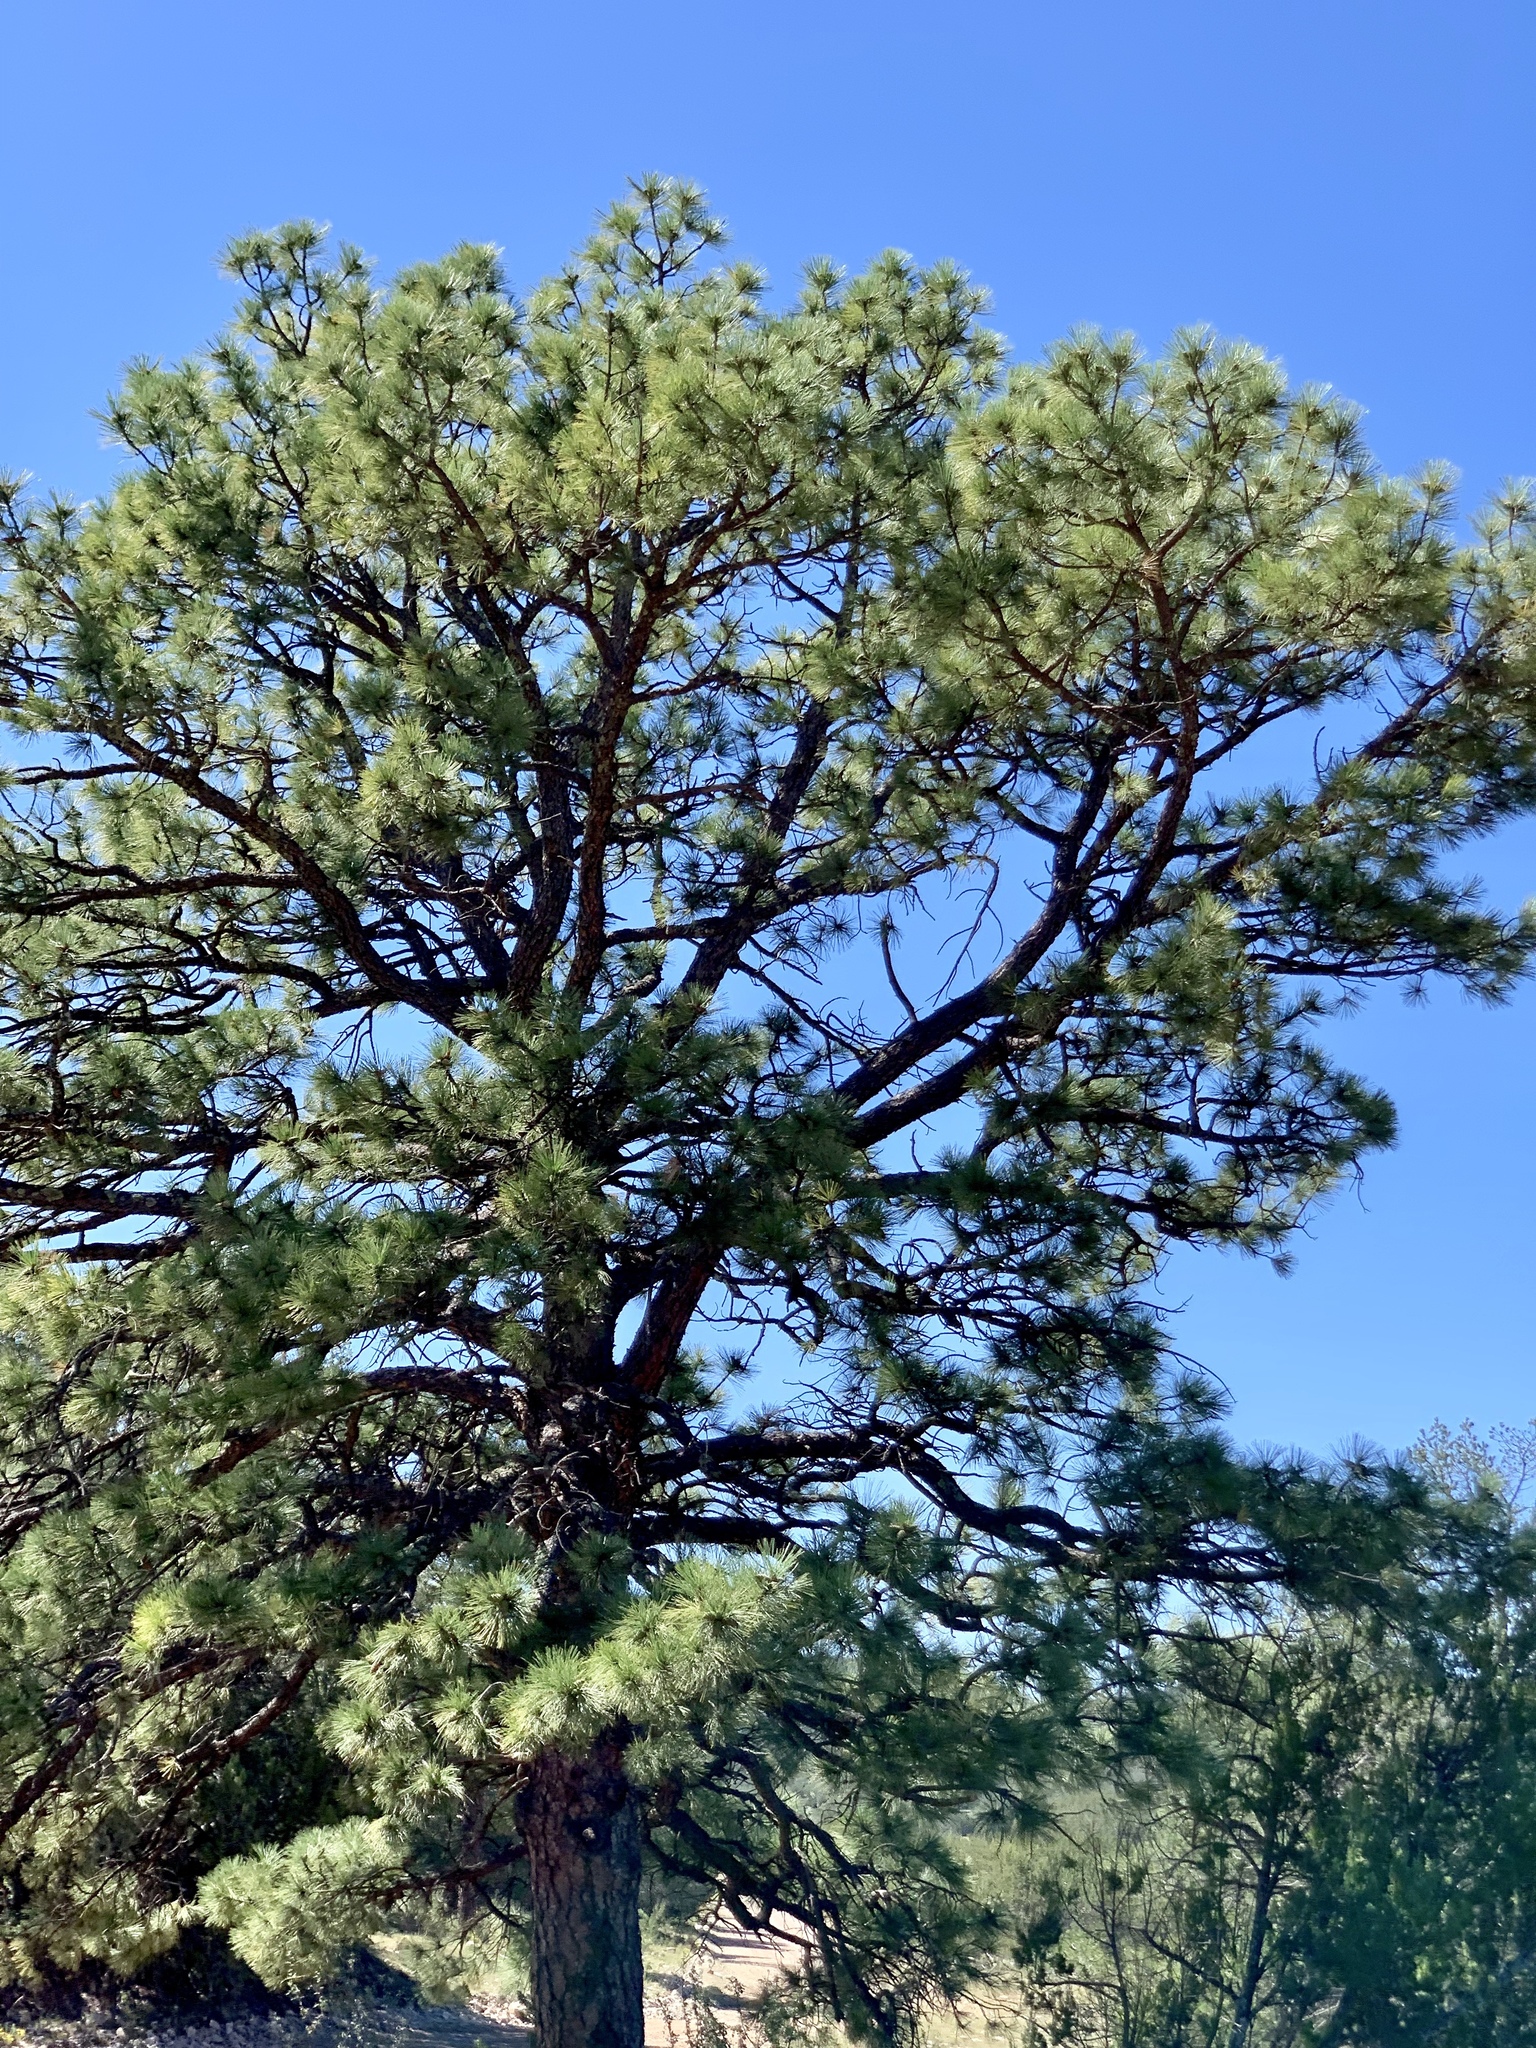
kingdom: Plantae
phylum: Tracheophyta
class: Pinopsida
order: Pinales
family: Pinaceae
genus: Pinus
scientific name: Pinus ponderosa
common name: Western yellow-pine
